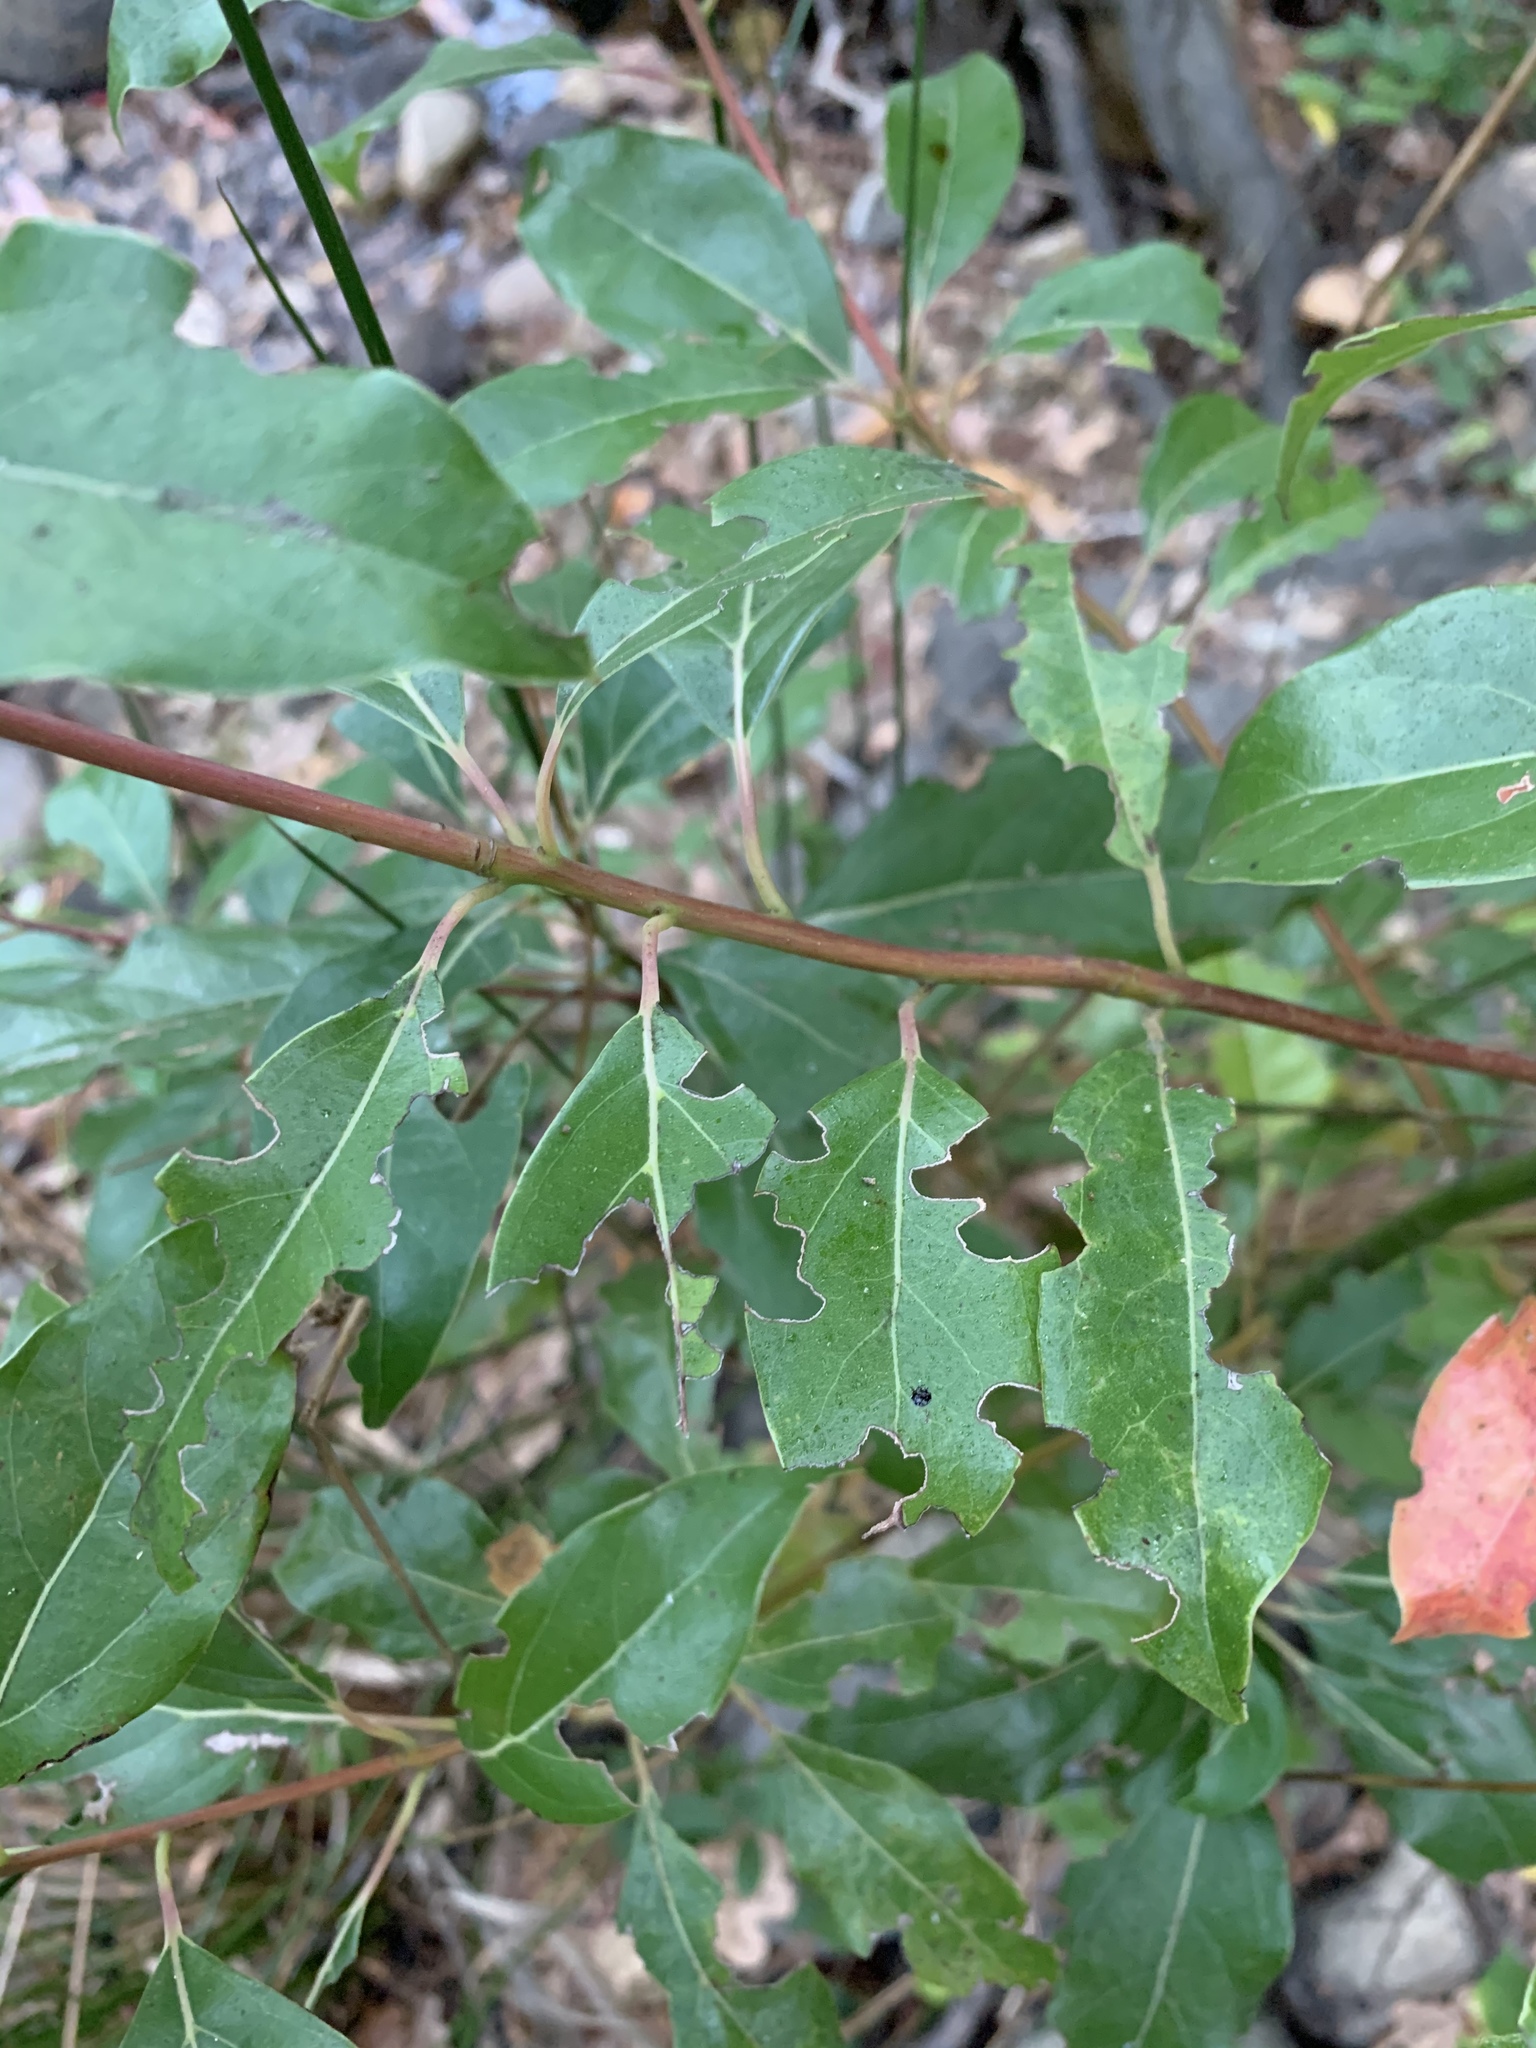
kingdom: Plantae
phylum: Tracheophyta
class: Magnoliopsida
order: Laurales
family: Lauraceae
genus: Cinnamomum
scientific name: Cinnamomum camphora
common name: Camphortree
